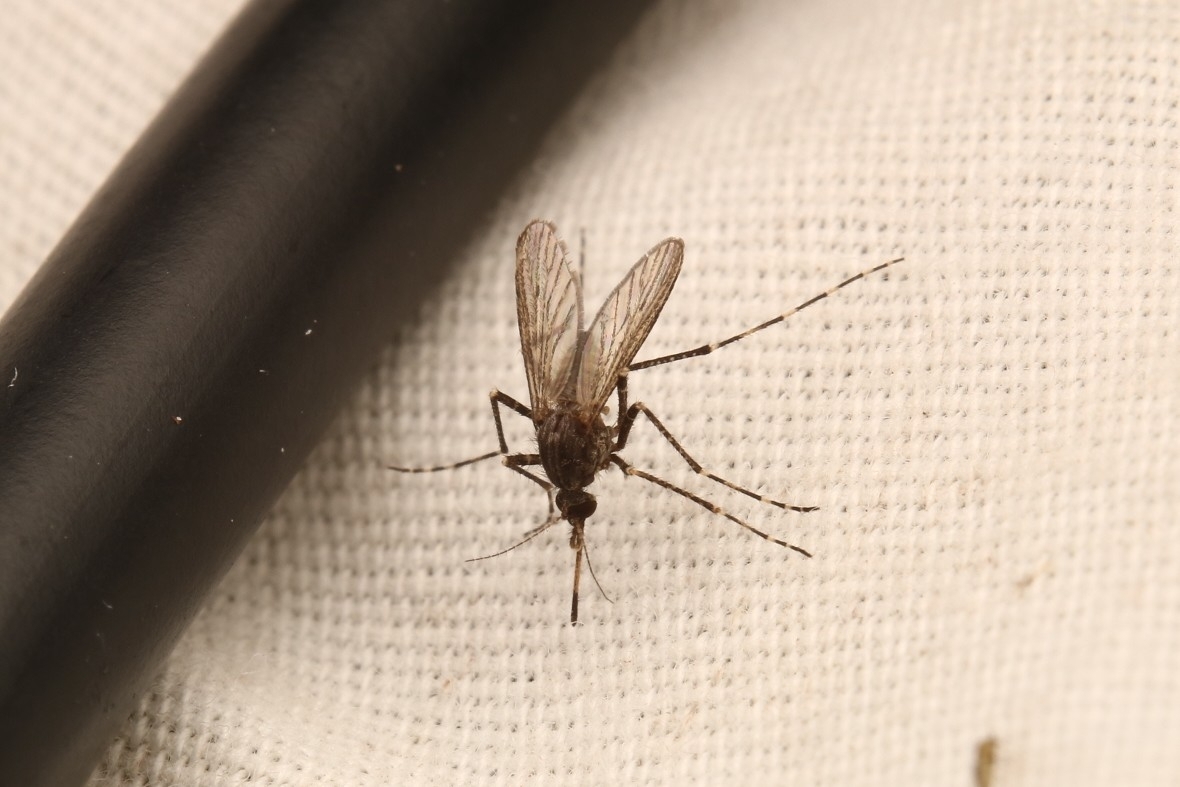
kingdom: Animalia
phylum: Arthropoda
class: Insecta
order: Diptera
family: Culicidae
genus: Psorophora
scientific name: Psorophora columbiae
